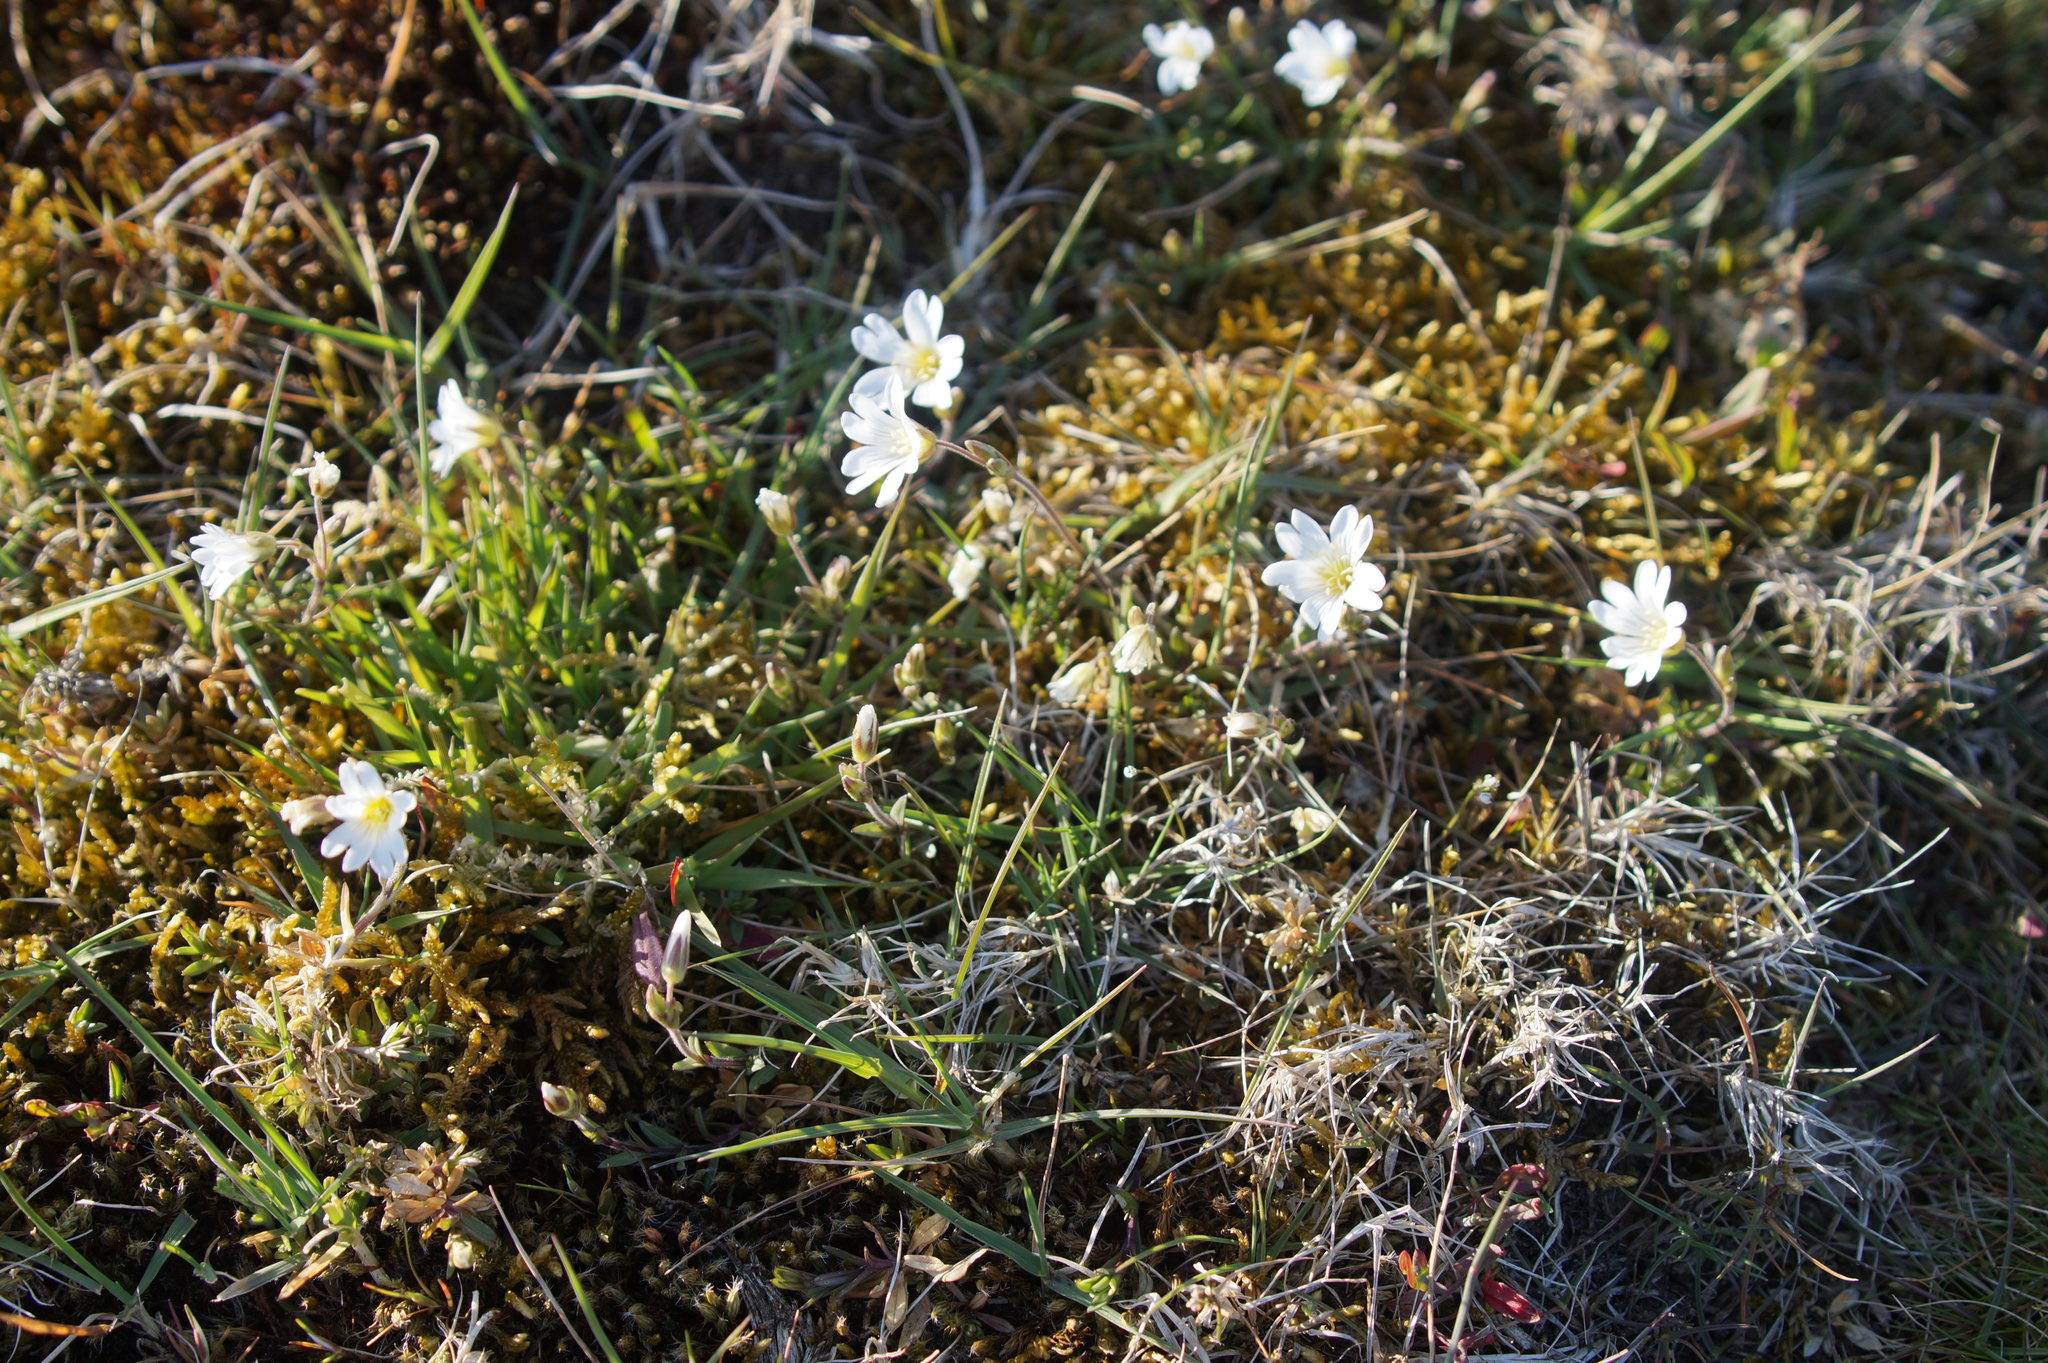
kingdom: Plantae
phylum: Tracheophyta
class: Magnoliopsida
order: Caryophyllales
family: Caryophyllaceae
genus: Cerastium
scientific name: Cerastium arvense
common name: Field mouse-ear
